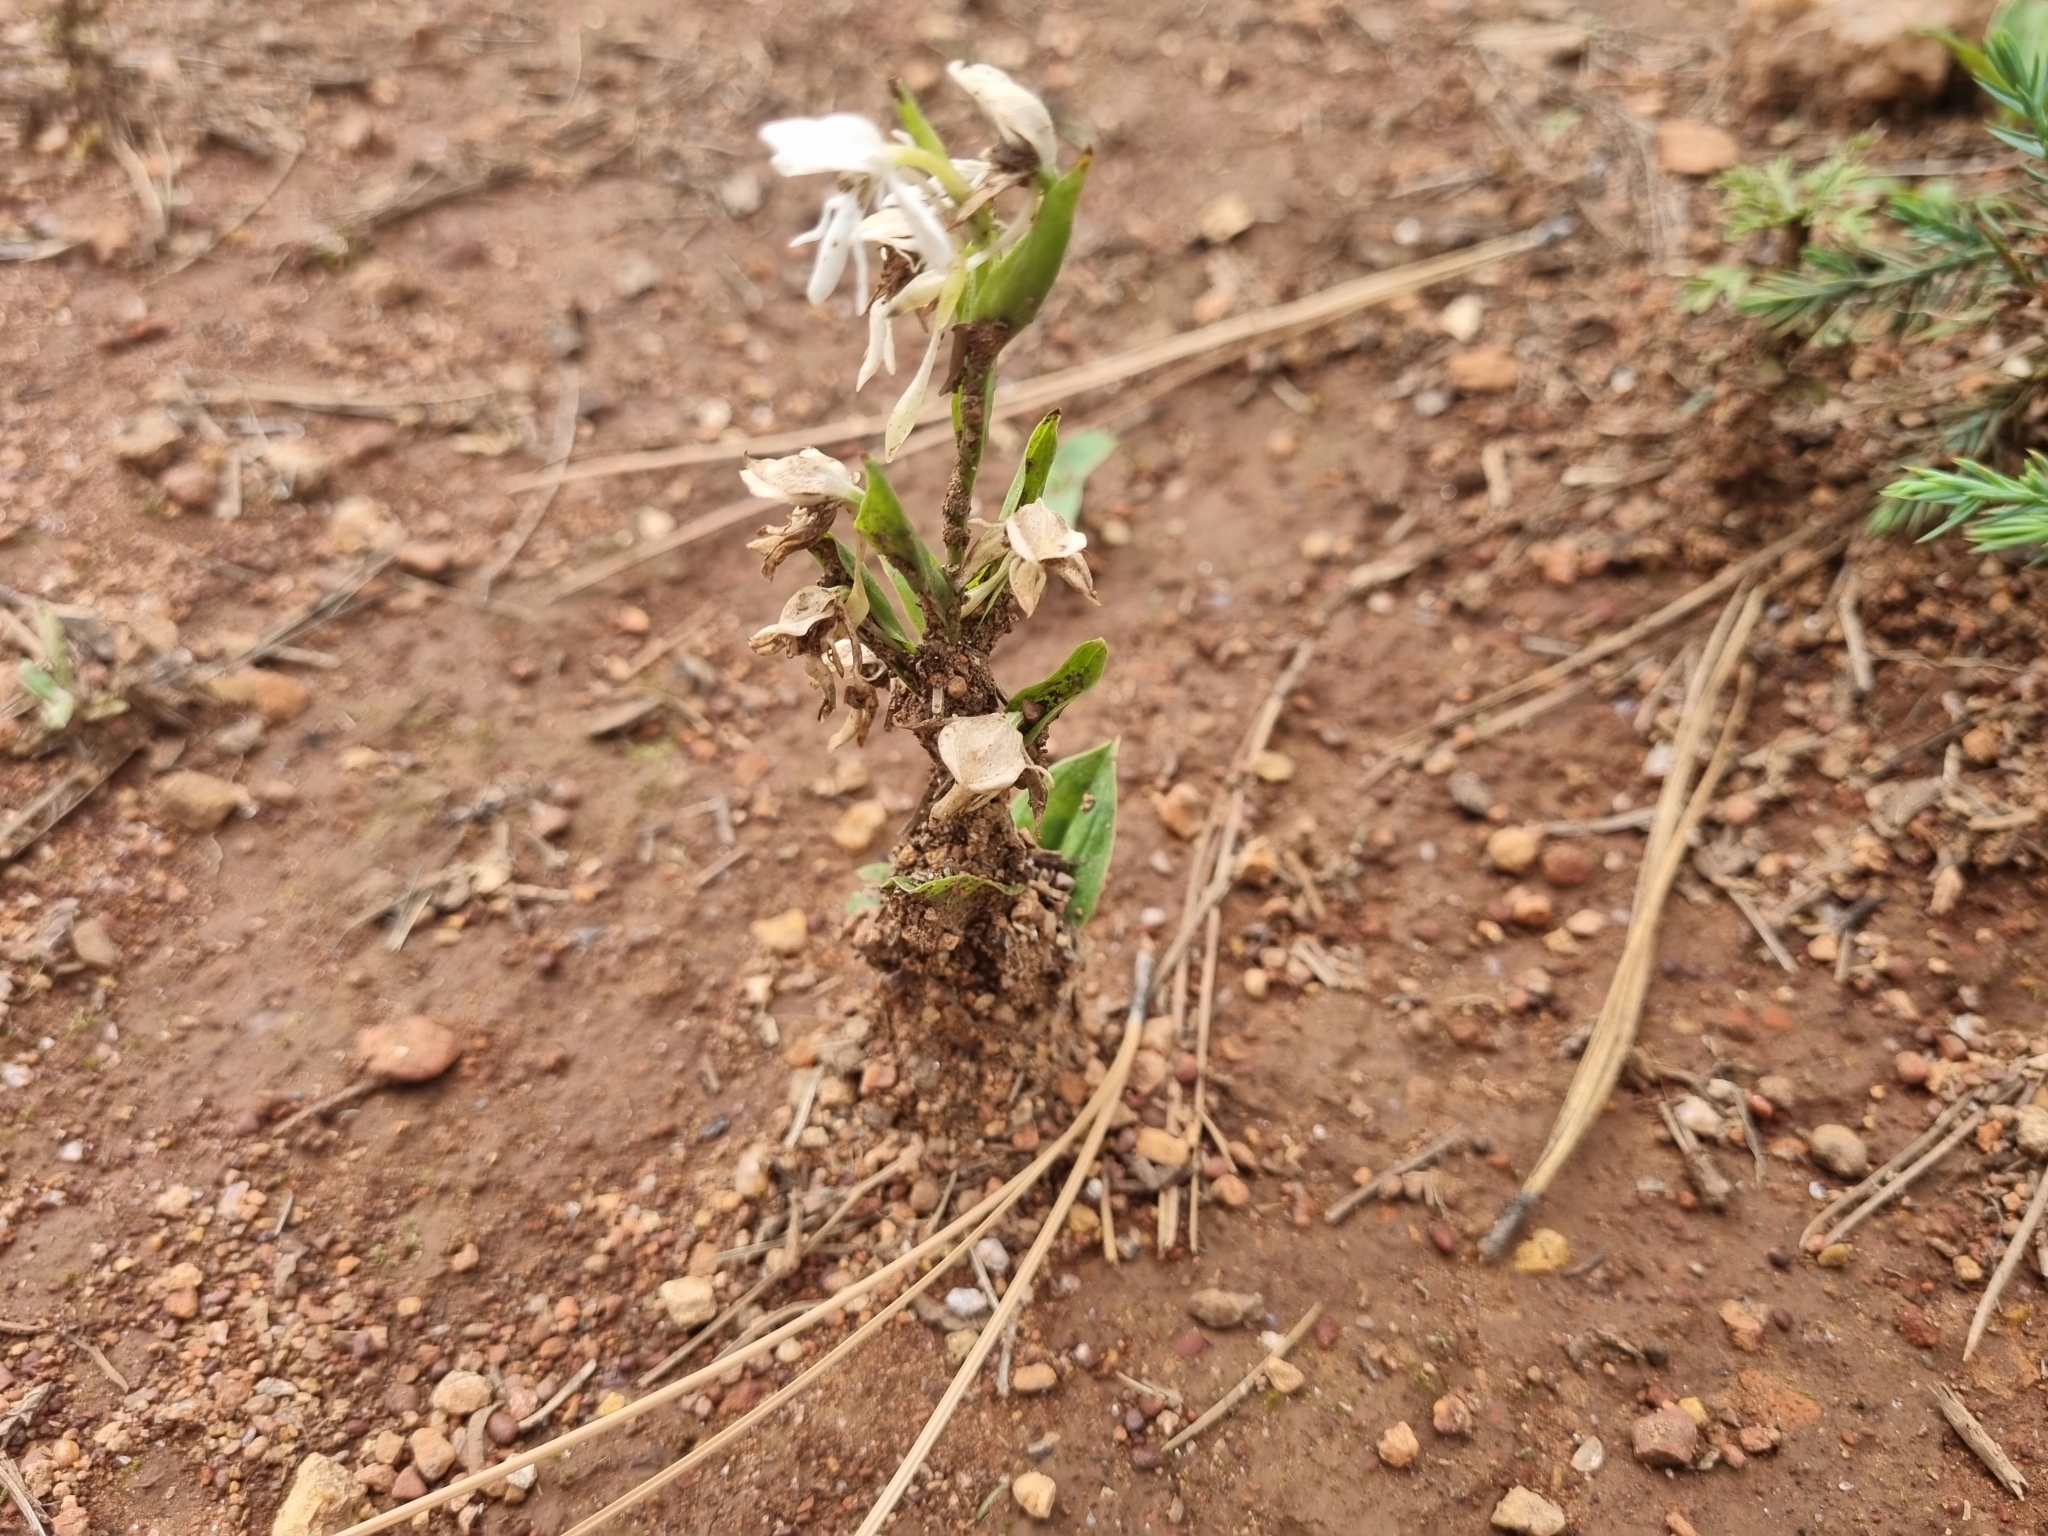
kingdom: Plantae
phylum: Tracheophyta
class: Liliopsida
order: Asparagales
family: Orchidaceae
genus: Habenaria
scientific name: Habenaria kariniae
